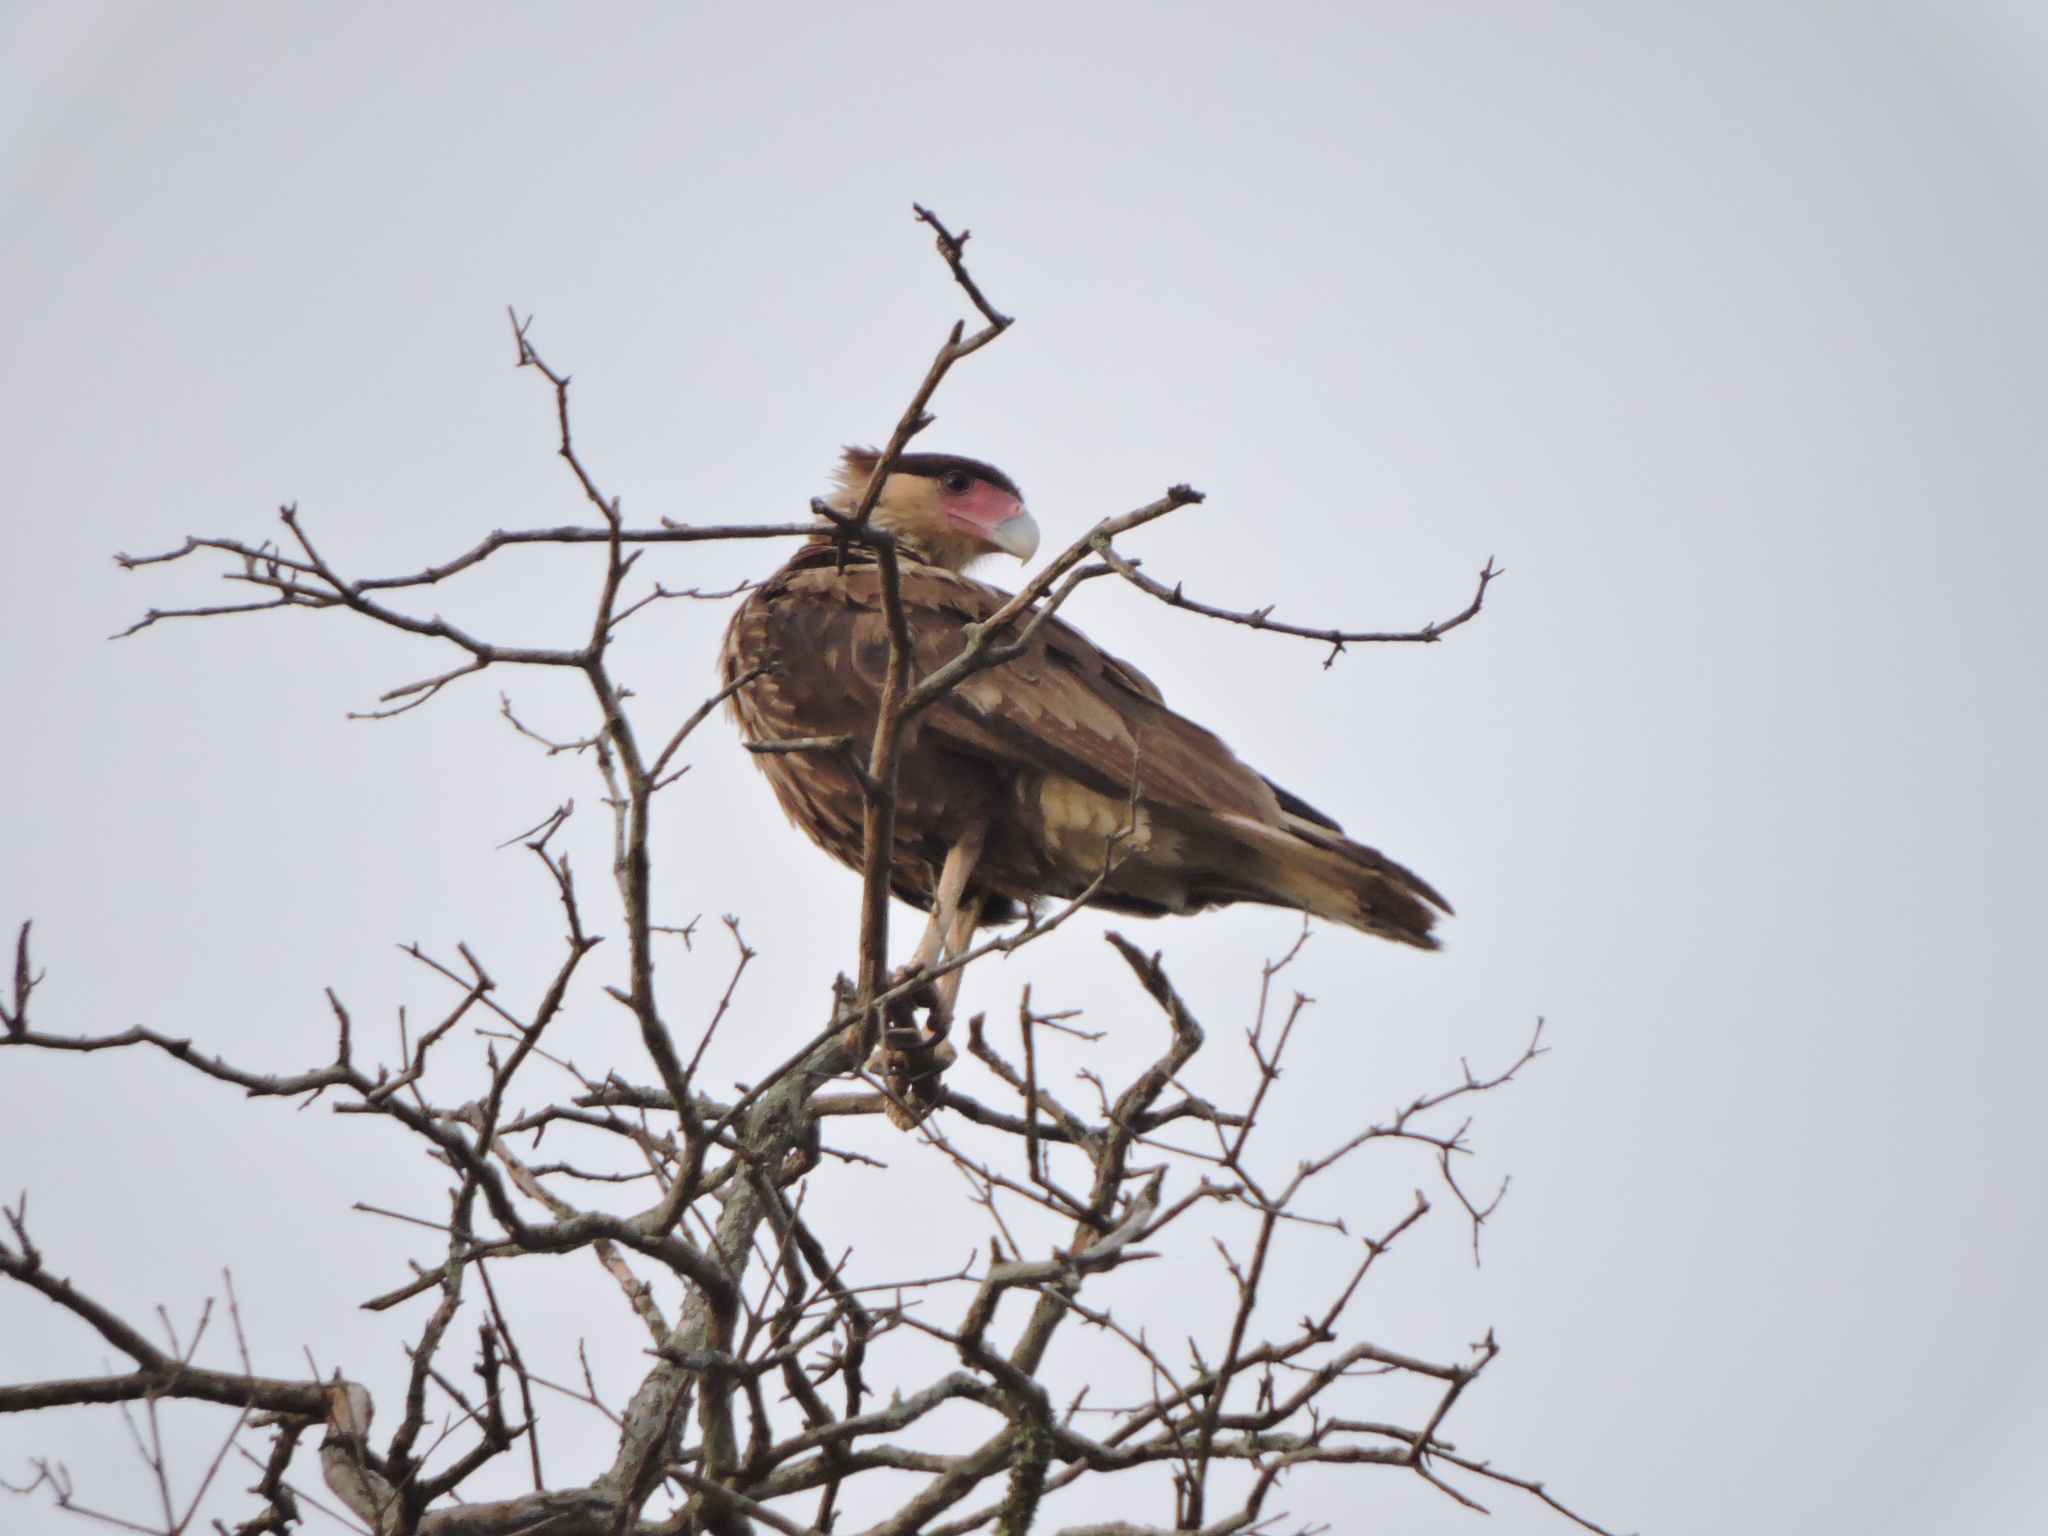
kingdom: Animalia
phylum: Chordata
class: Aves
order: Falconiformes
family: Falconidae
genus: Caracara
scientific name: Caracara plancus
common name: Southern caracara
